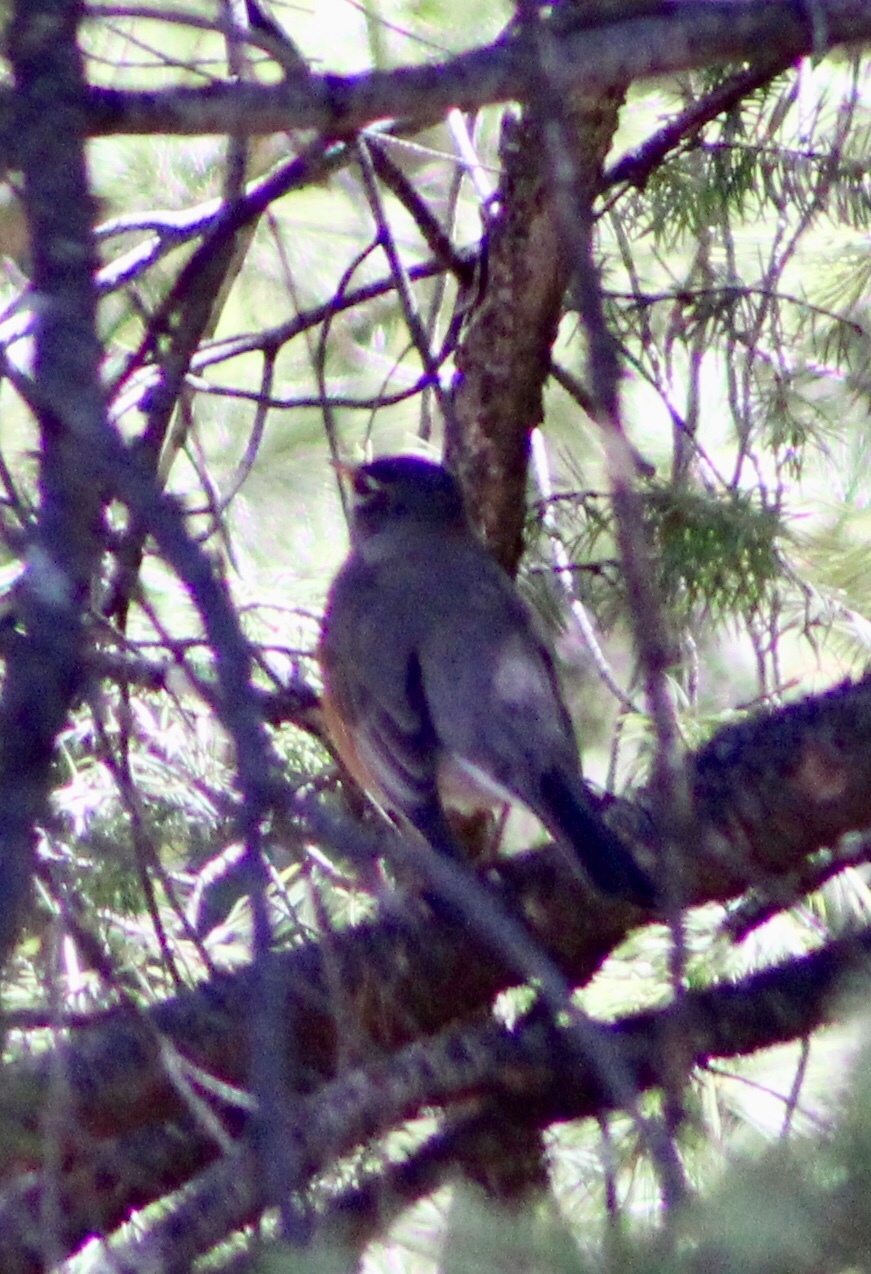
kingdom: Animalia
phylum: Chordata
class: Aves
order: Passeriformes
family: Turdidae
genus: Turdus
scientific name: Turdus migratorius
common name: American robin
